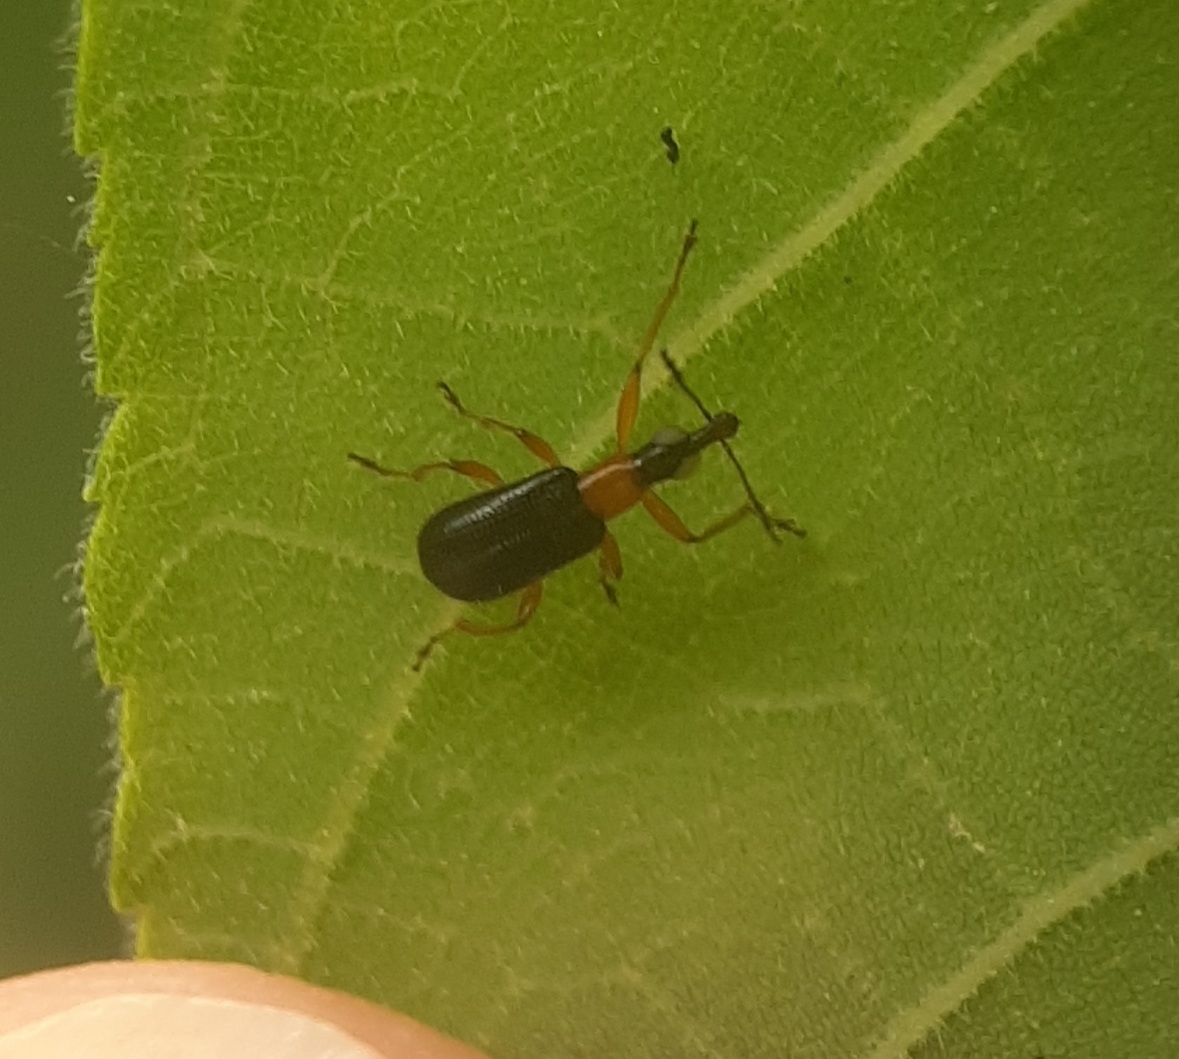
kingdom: Animalia
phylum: Arthropoda
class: Insecta
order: Coleoptera
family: Attelabidae
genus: Eugnamptus
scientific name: Eugnamptus angustatus
